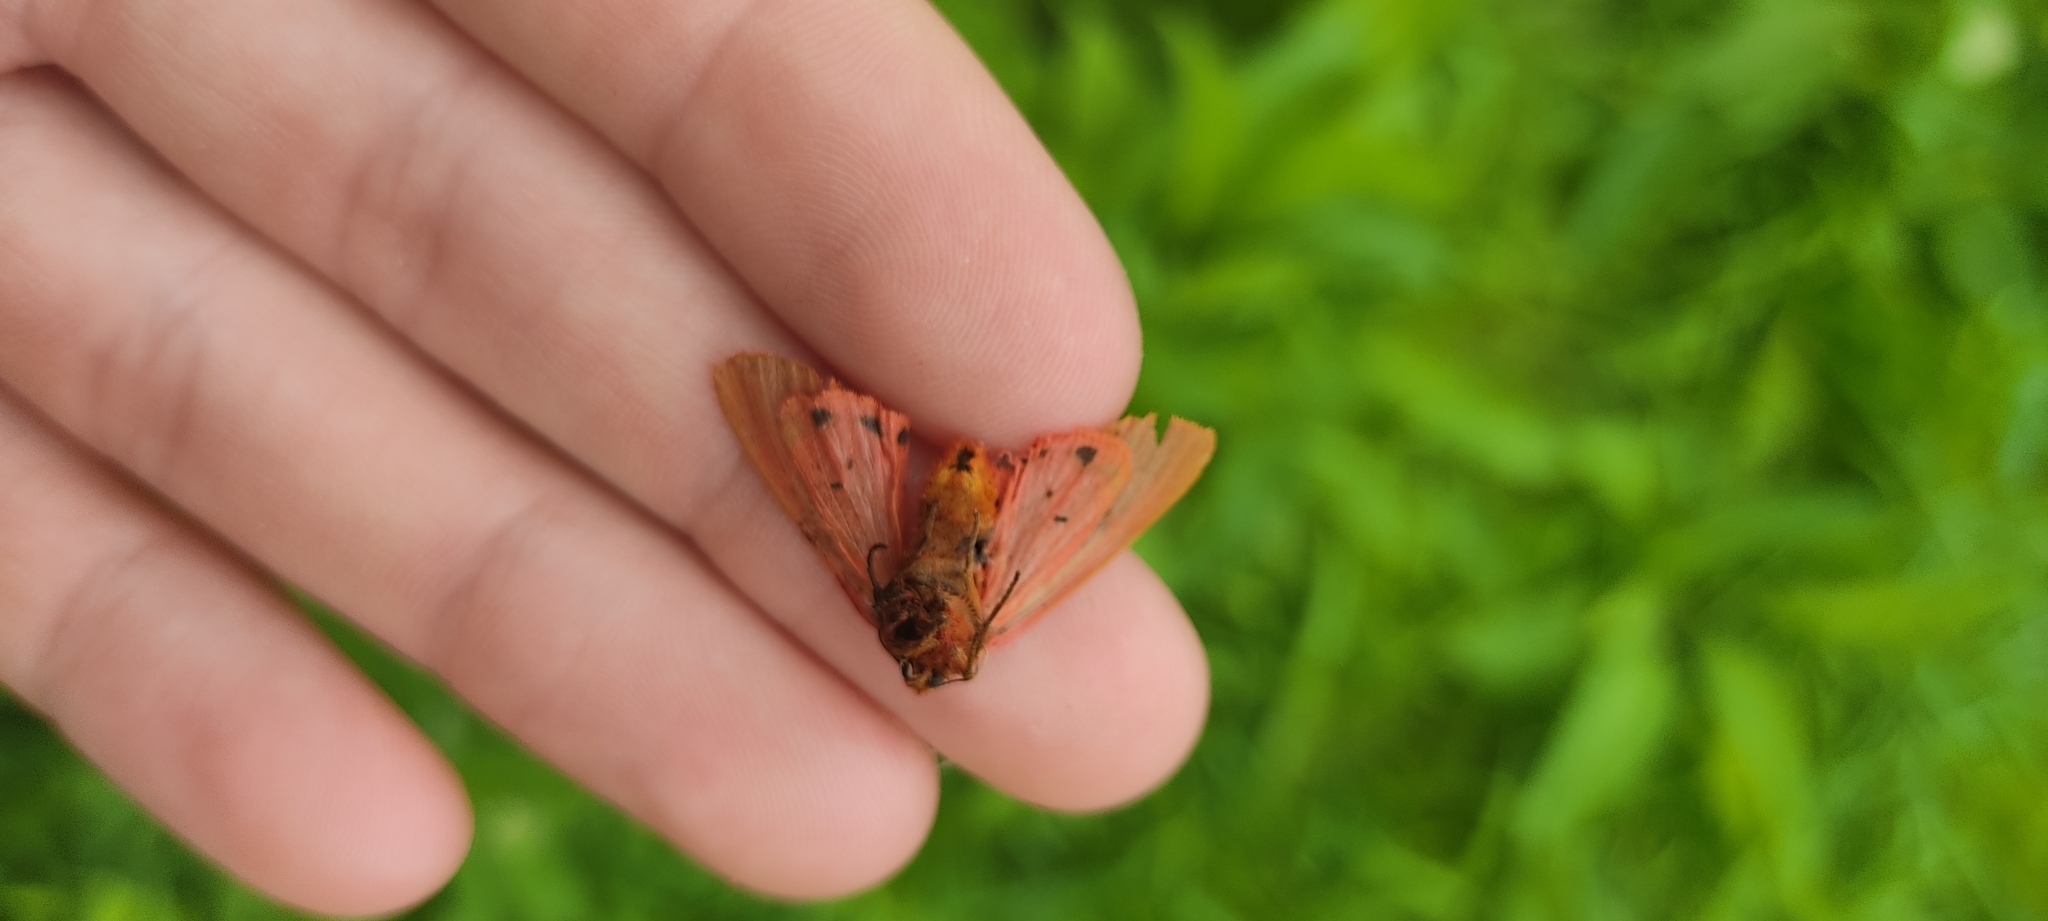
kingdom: Animalia
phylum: Arthropoda
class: Insecta
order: Lepidoptera
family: Erebidae
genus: Phragmatobia
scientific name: Phragmatobia fuliginosa
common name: Ruby tiger
